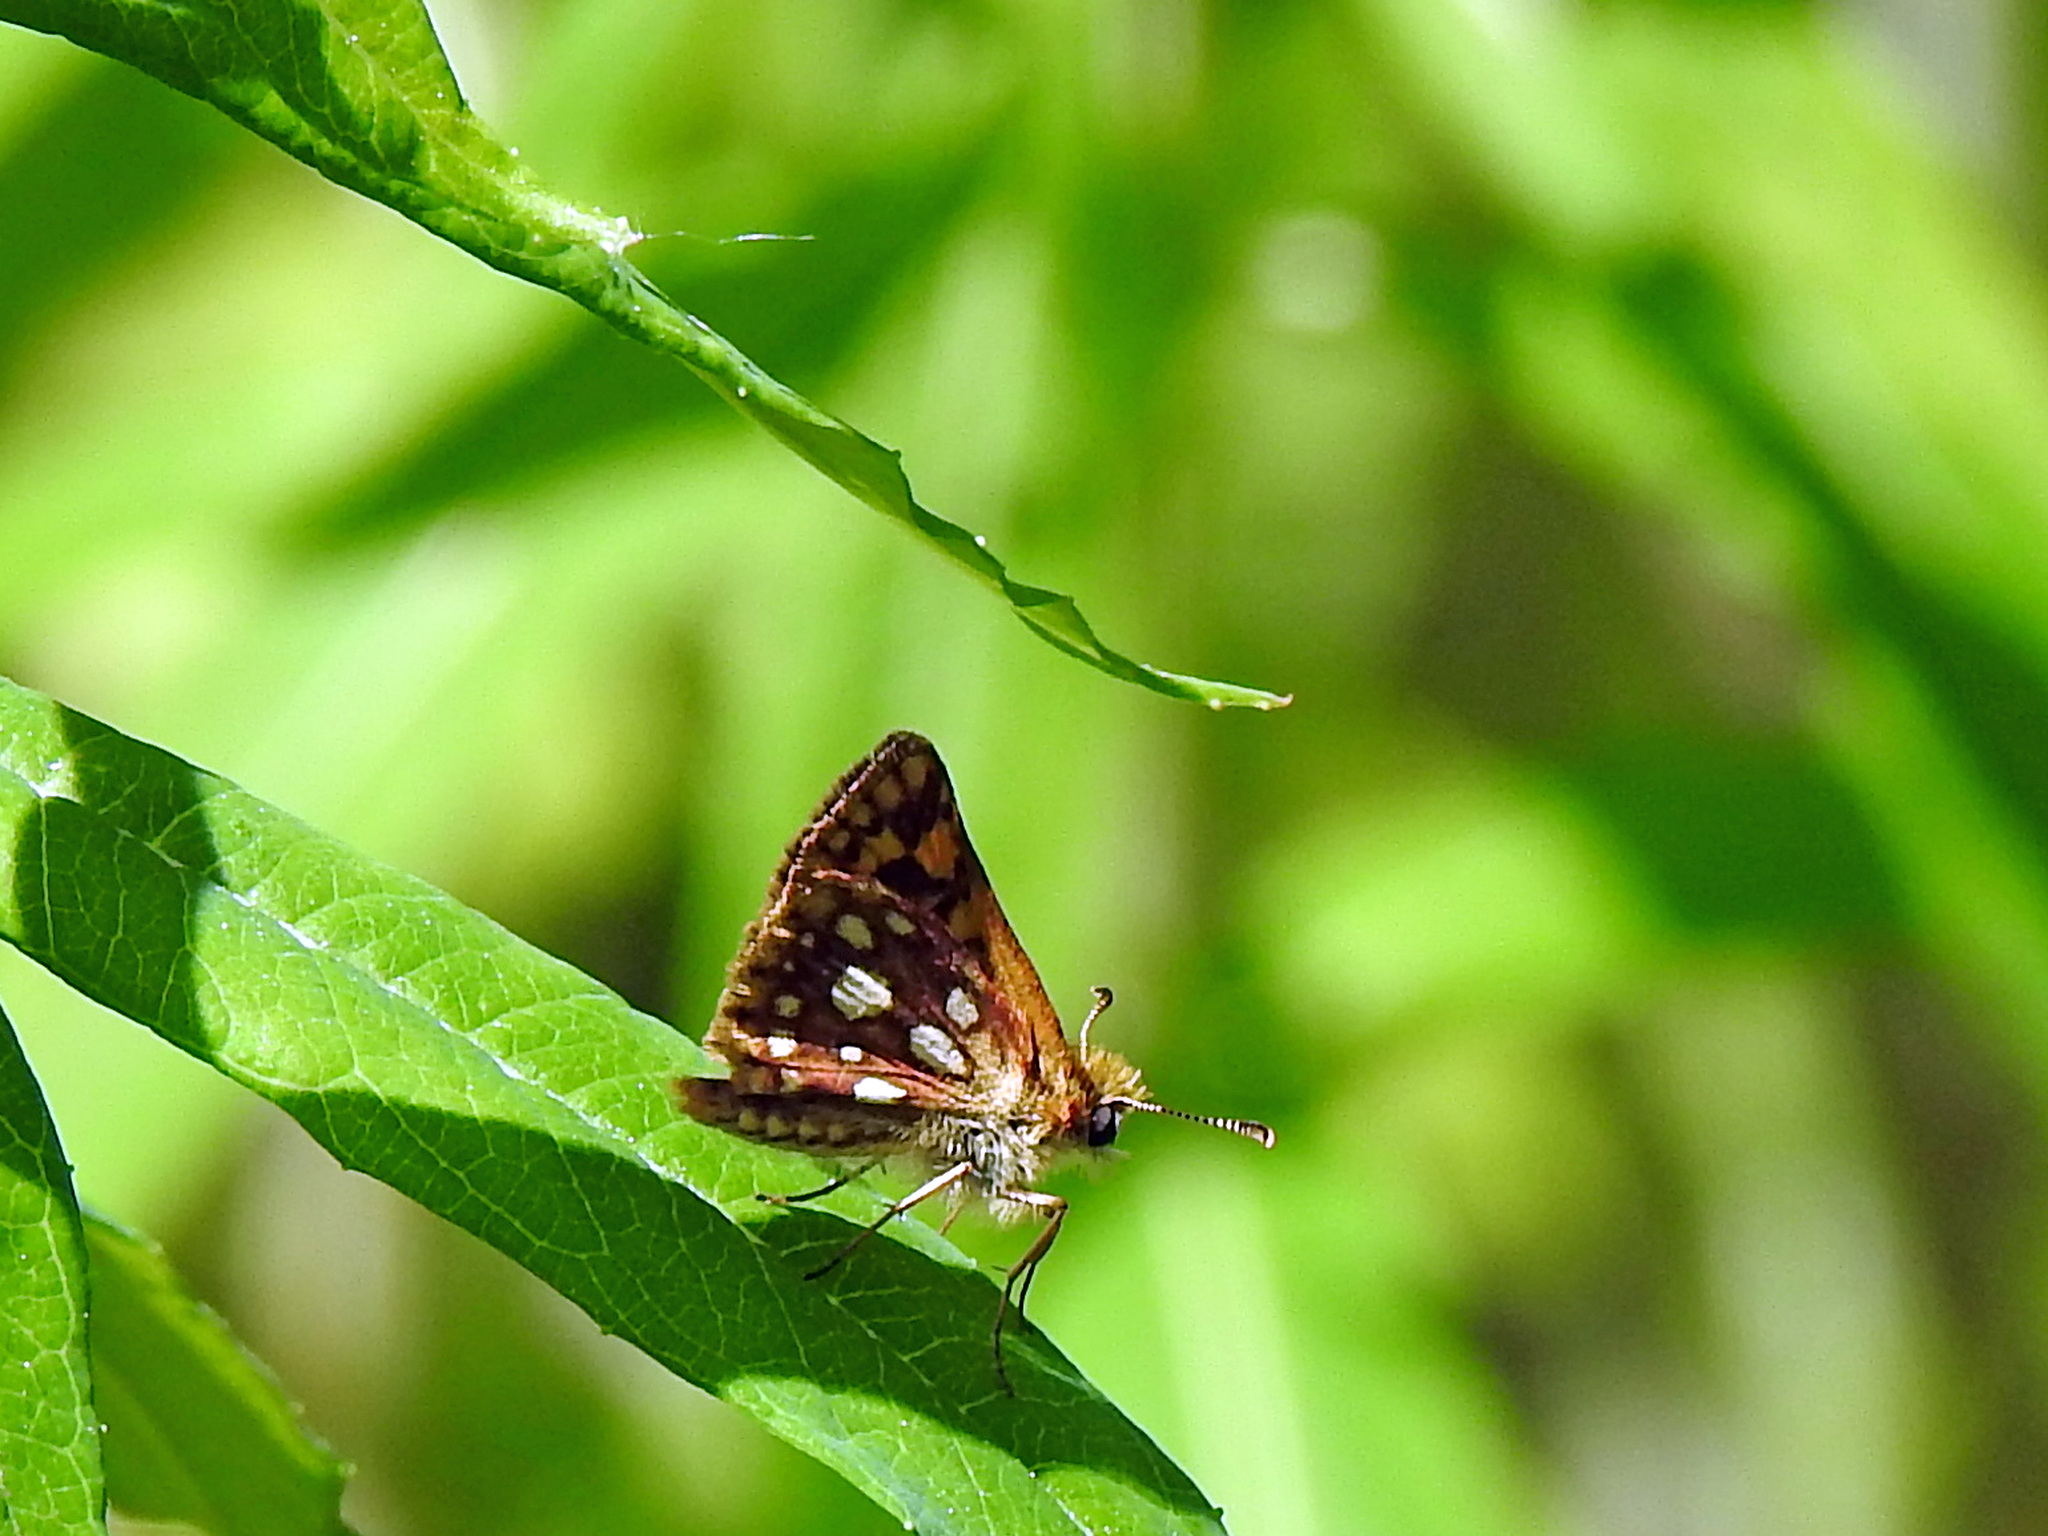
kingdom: Animalia
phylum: Arthropoda
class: Insecta
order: Lepidoptera
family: Hesperiidae
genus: Carterocephalus
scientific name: Carterocephalus mandan
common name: Arctic skipperling
